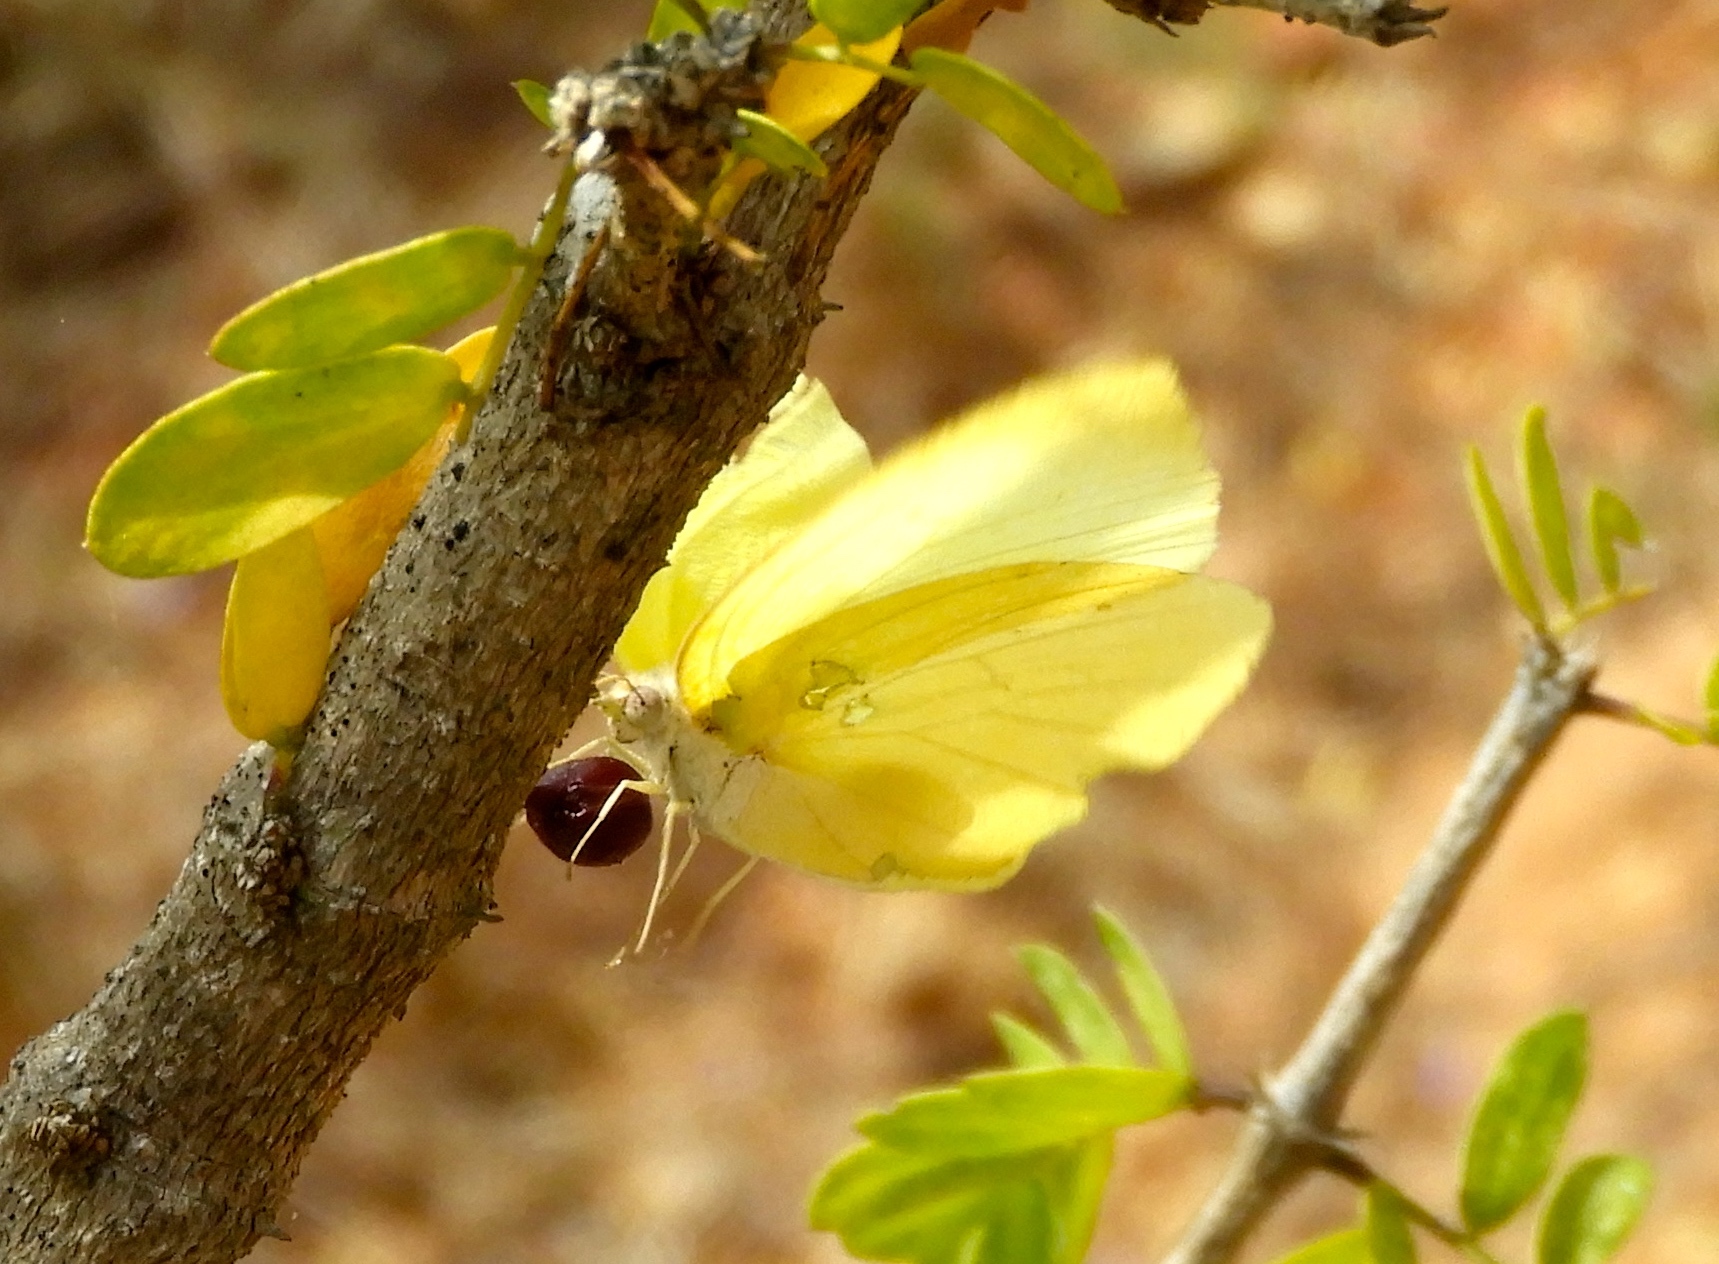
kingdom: Animalia
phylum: Arthropoda
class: Insecta
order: Lepidoptera
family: Pieridae
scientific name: Pieridae
